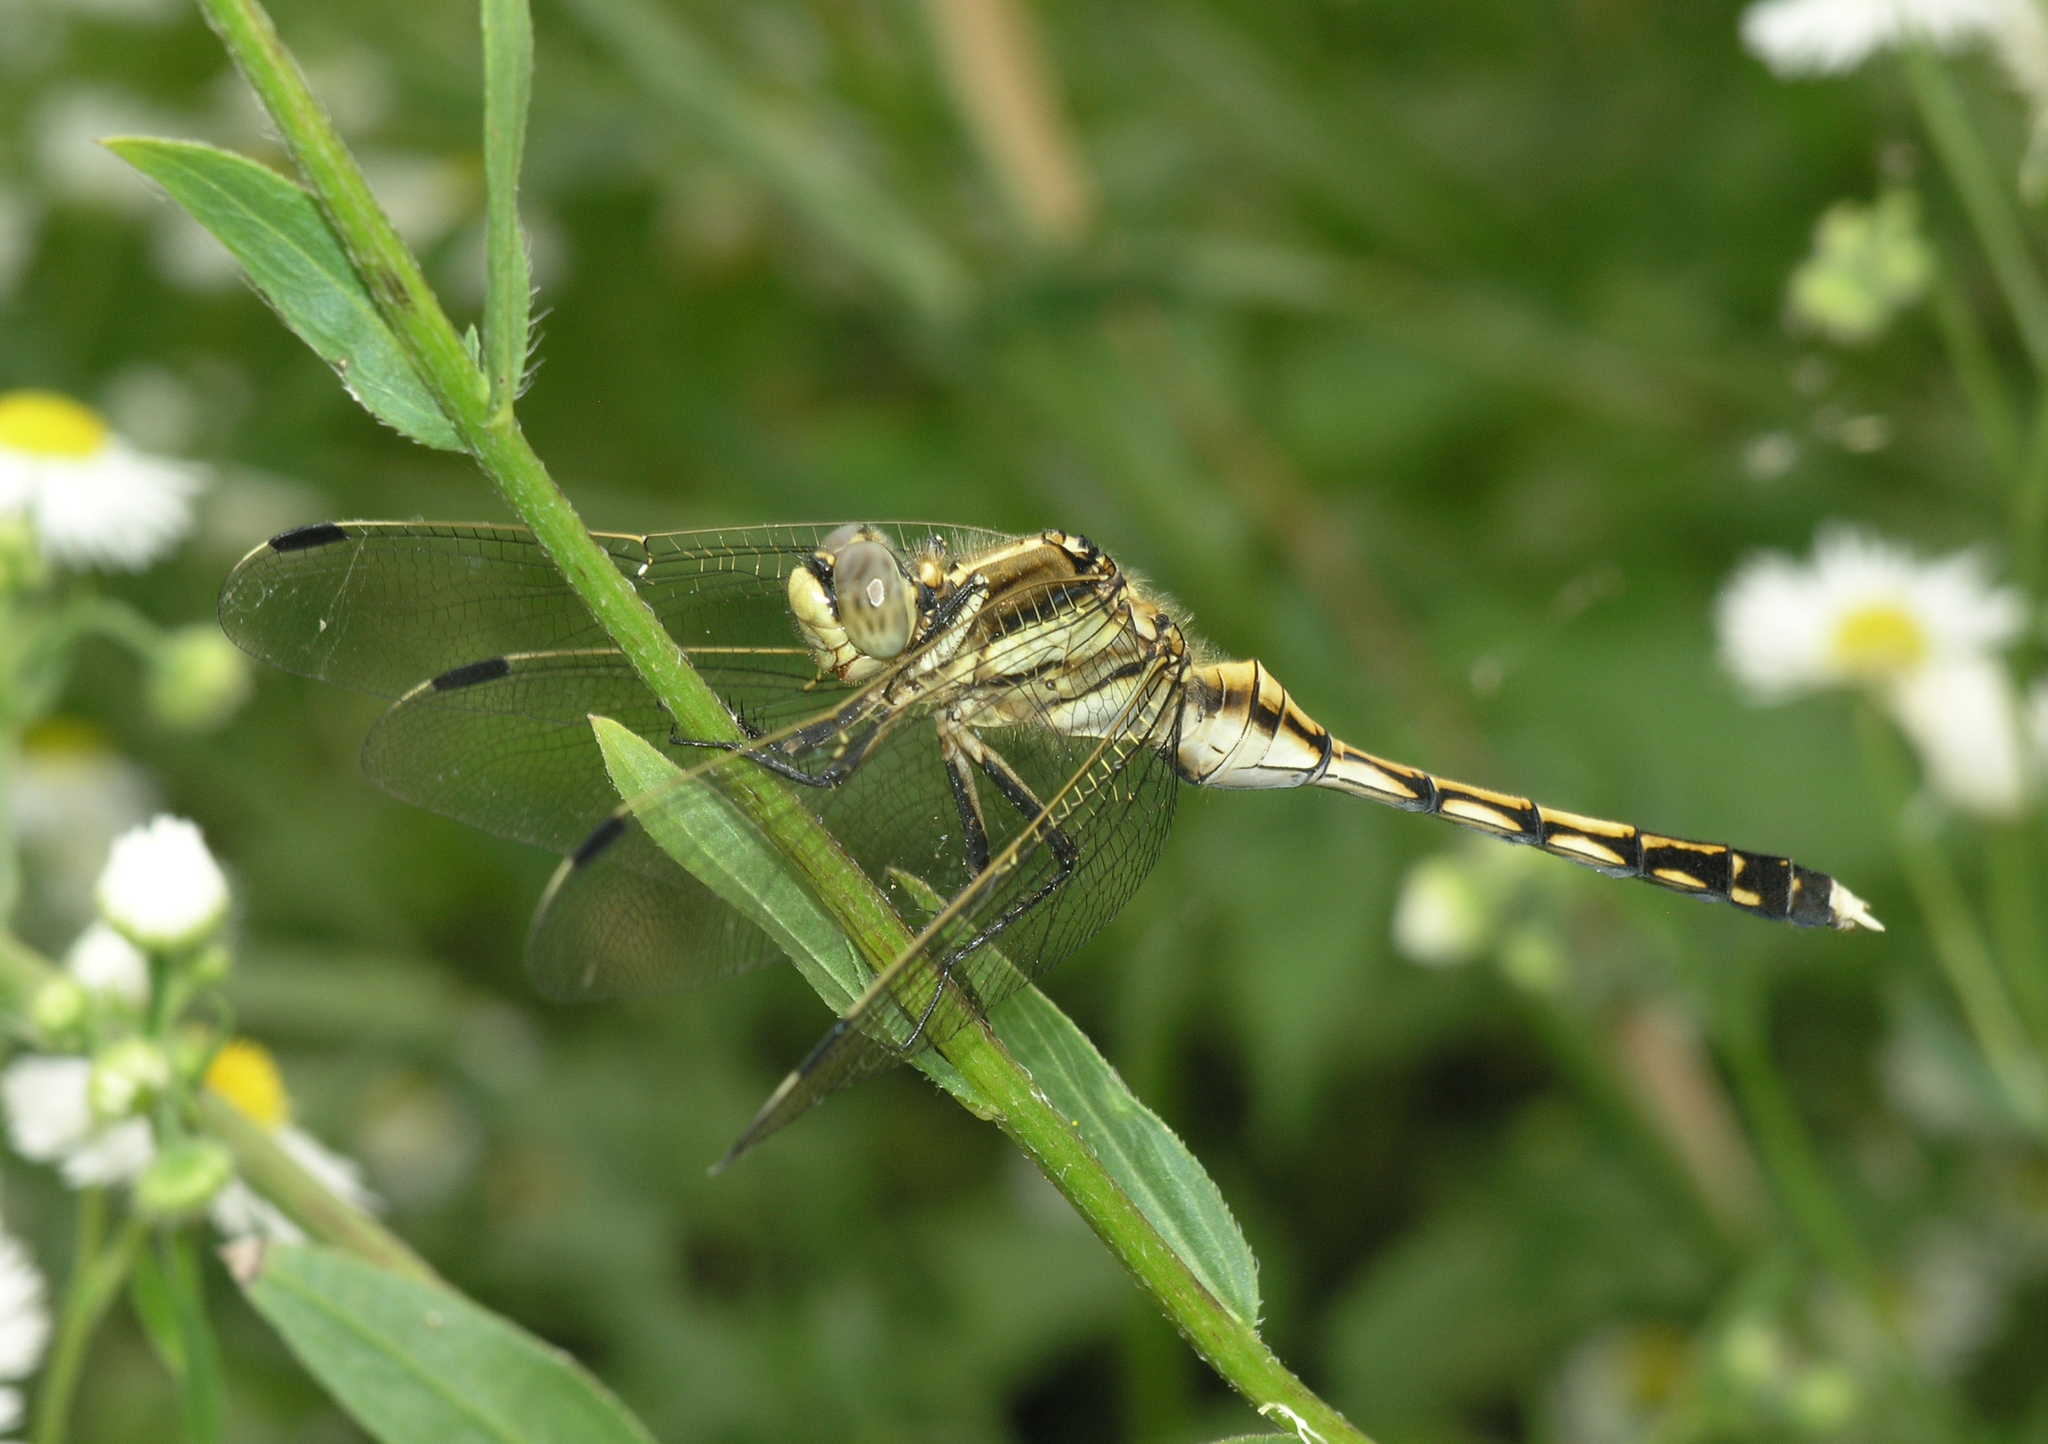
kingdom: Animalia
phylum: Arthropoda
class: Insecta
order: Odonata
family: Libellulidae
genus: Orthetrum
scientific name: Orthetrum albistylum
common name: White-tailed skimmer
